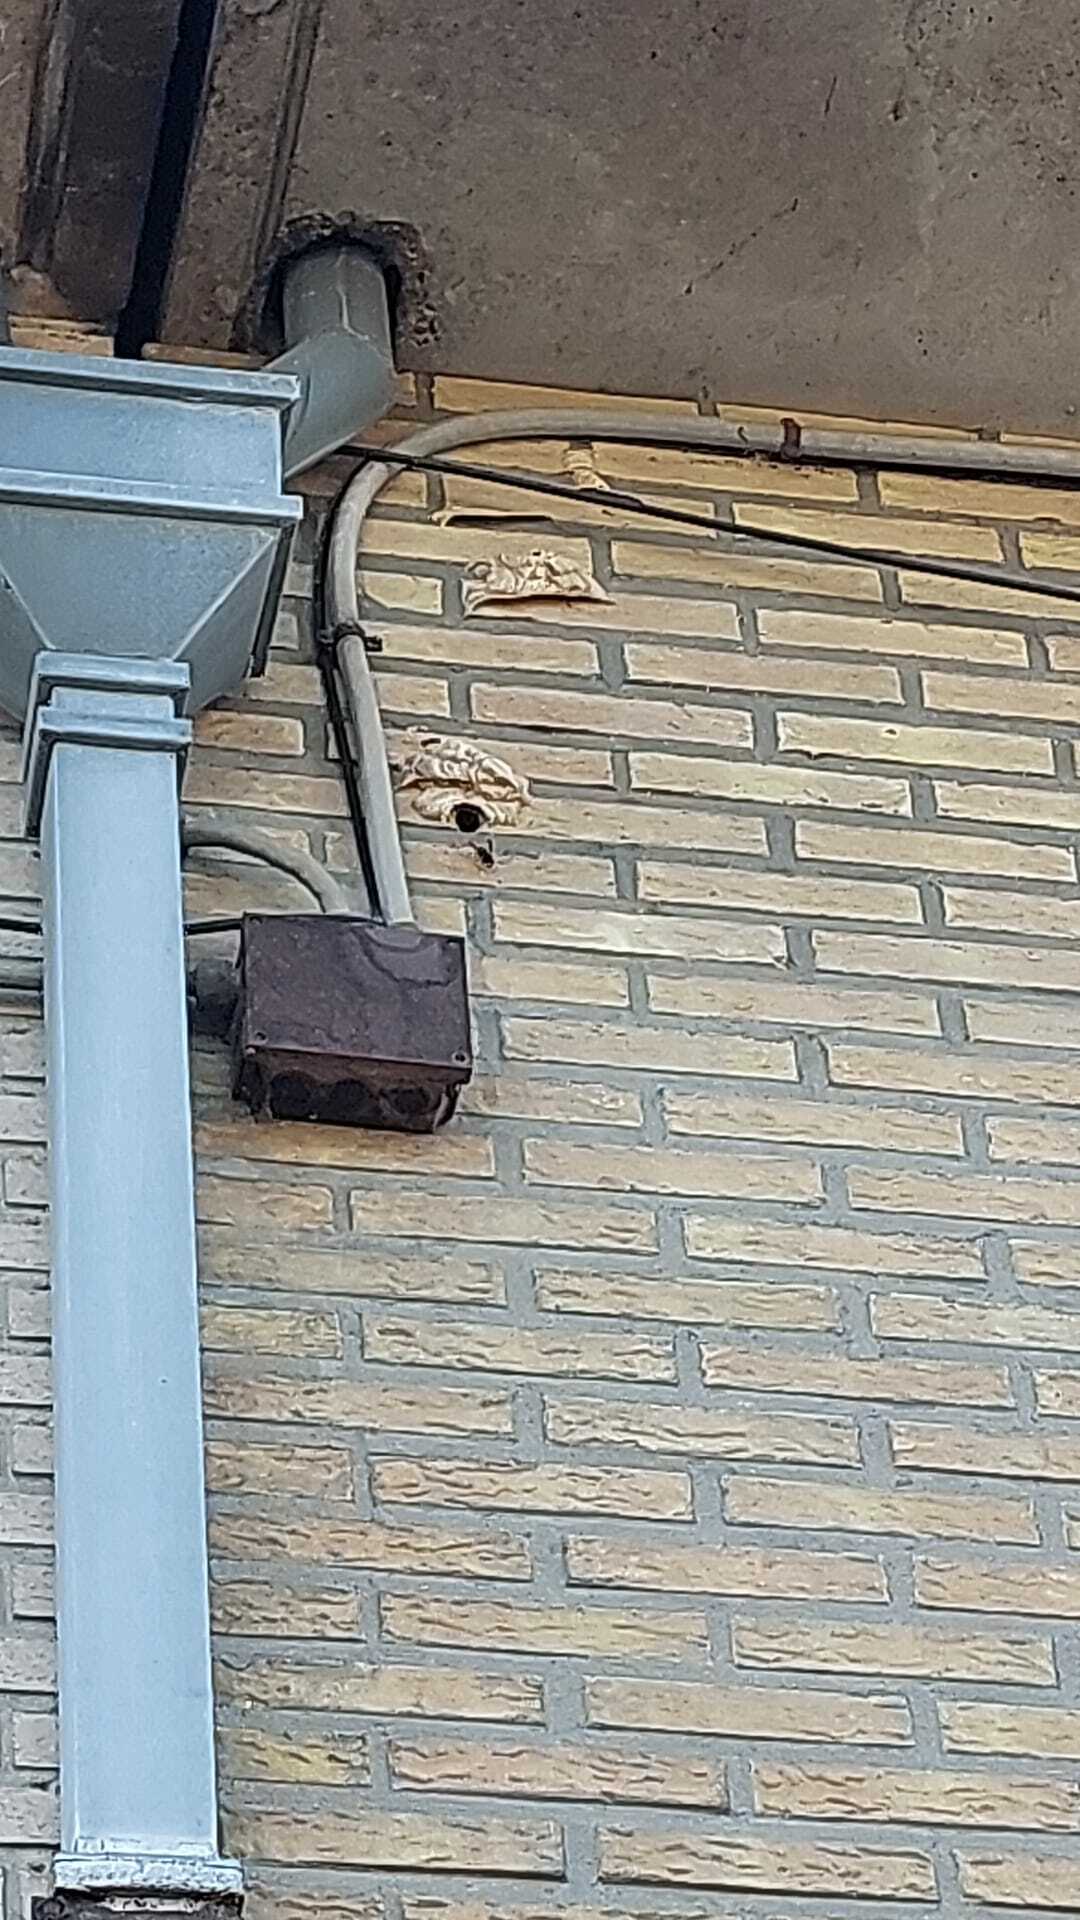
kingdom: Animalia
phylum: Arthropoda
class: Insecta
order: Hymenoptera
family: Vespidae
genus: Vespa
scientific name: Vespa velutina
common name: Asian hornet
